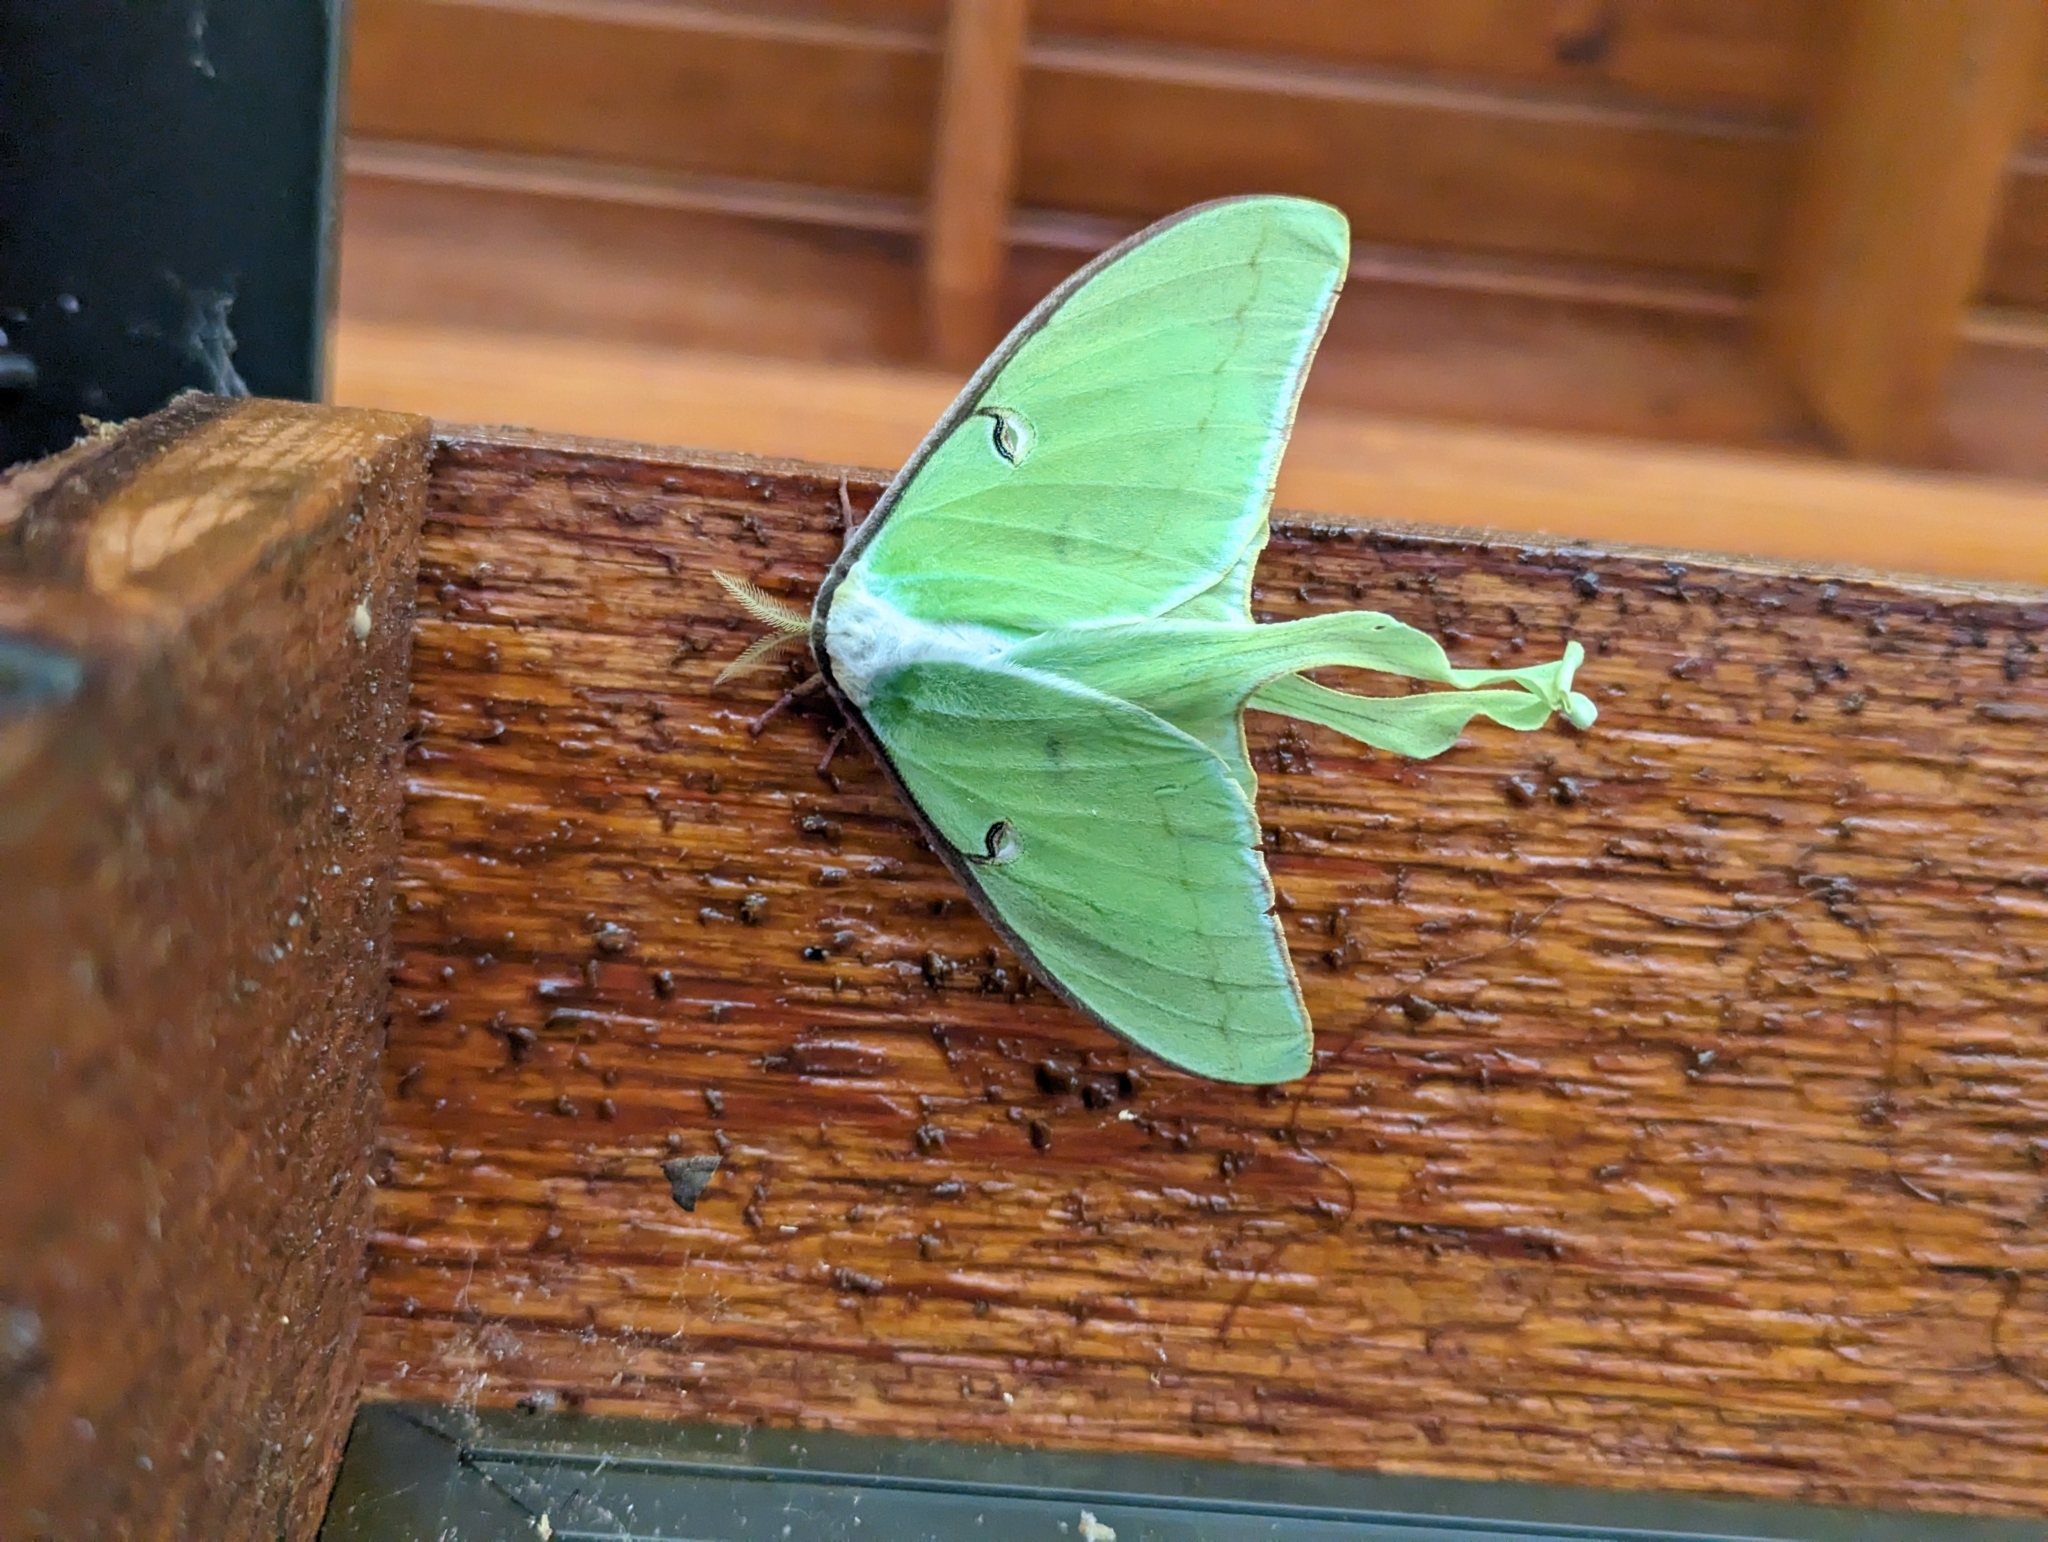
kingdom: Animalia
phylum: Arthropoda
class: Insecta
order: Lepidoptera
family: Saturniidae
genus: Actias
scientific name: Actias luna
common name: Luna moth
